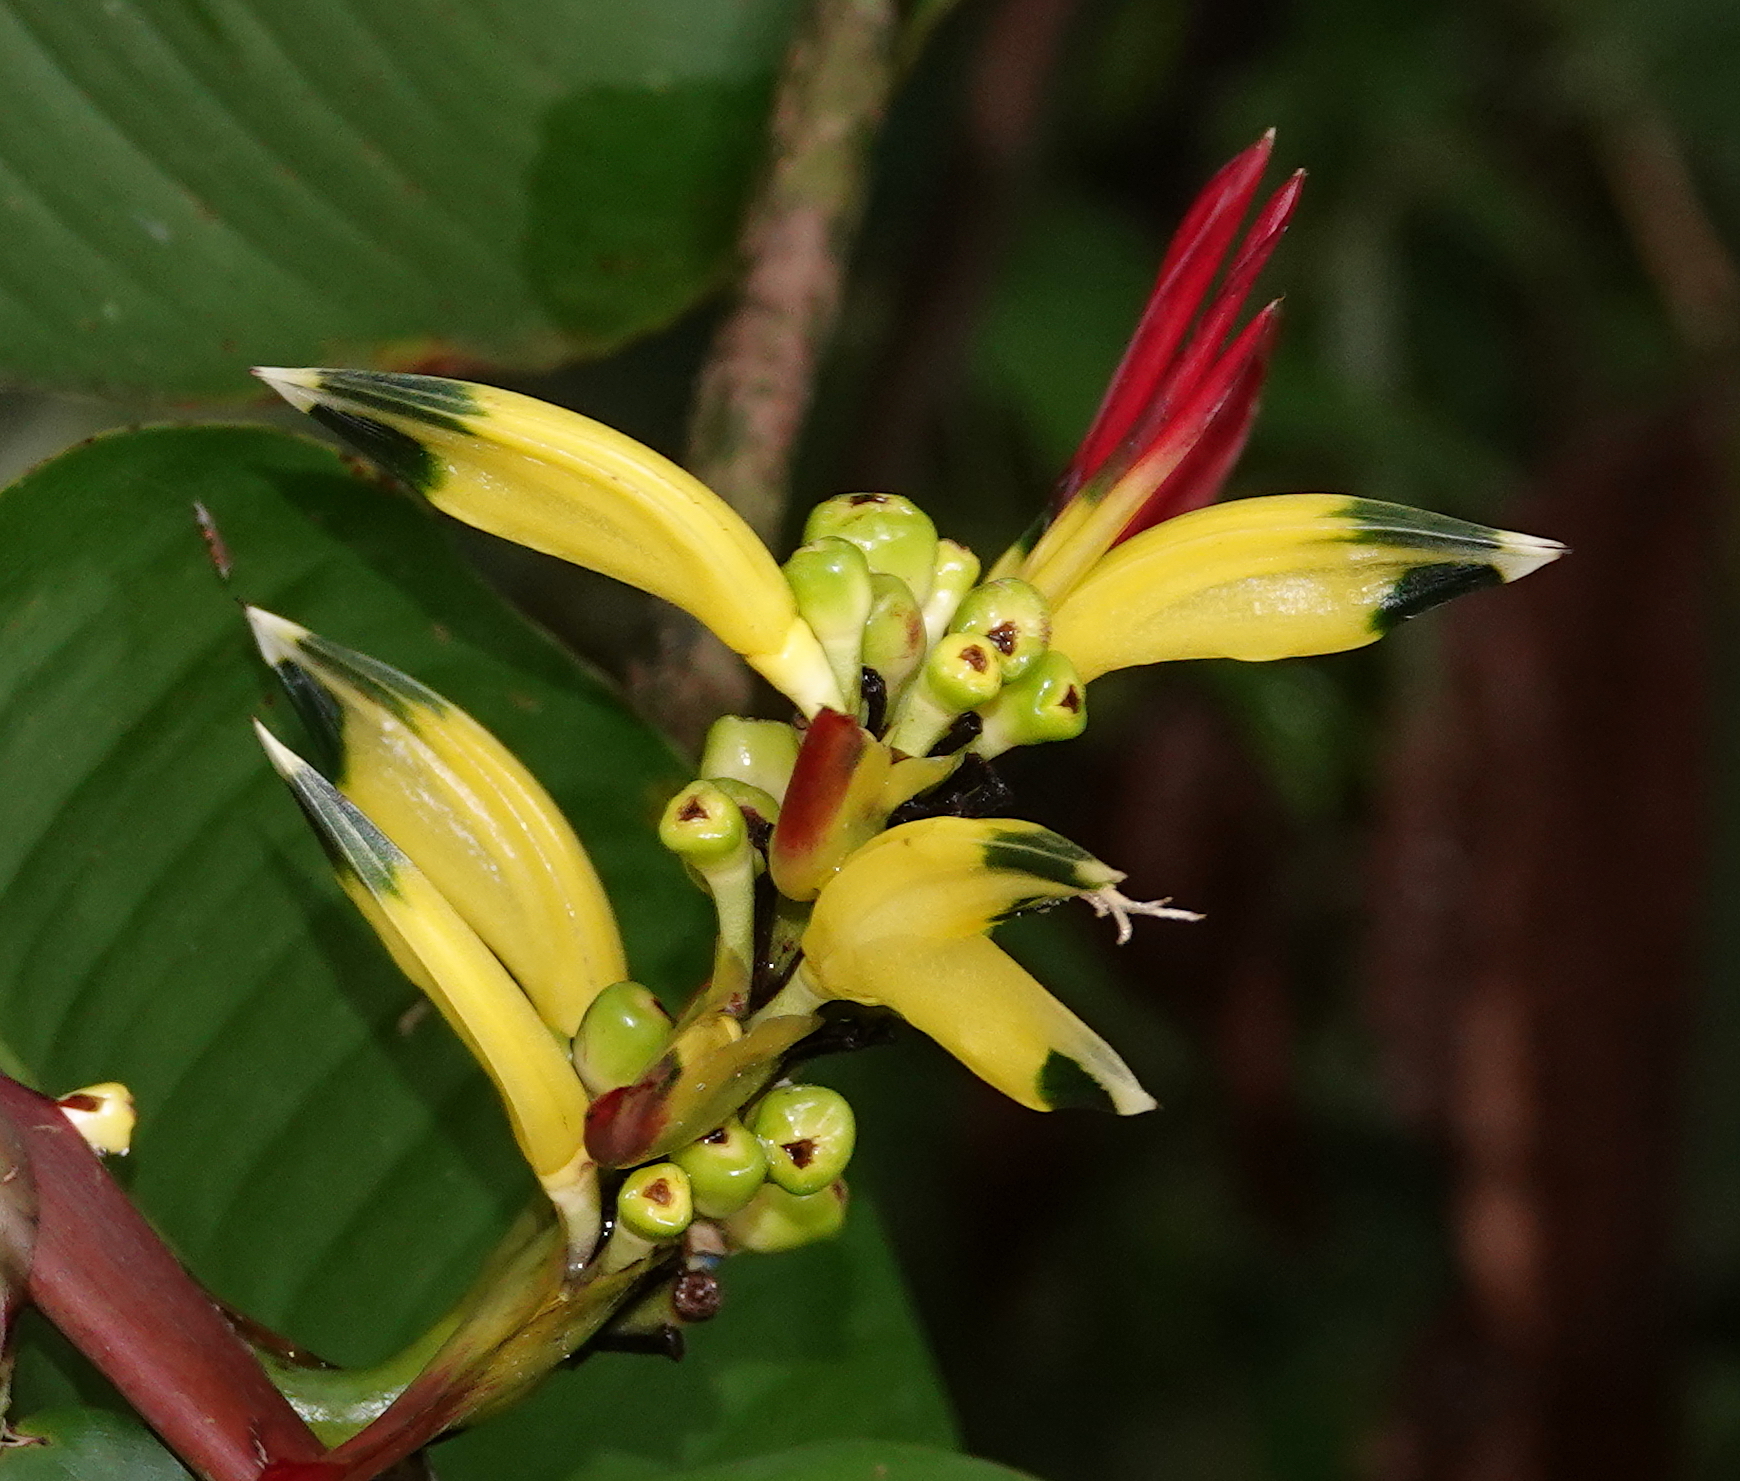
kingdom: Plantae
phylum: Tracheophyta
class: Liliopsida
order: Zingiberales
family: Heliconiaceae
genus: Heliconia
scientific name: Heliconia psittacorum
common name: Parrot's-flower
